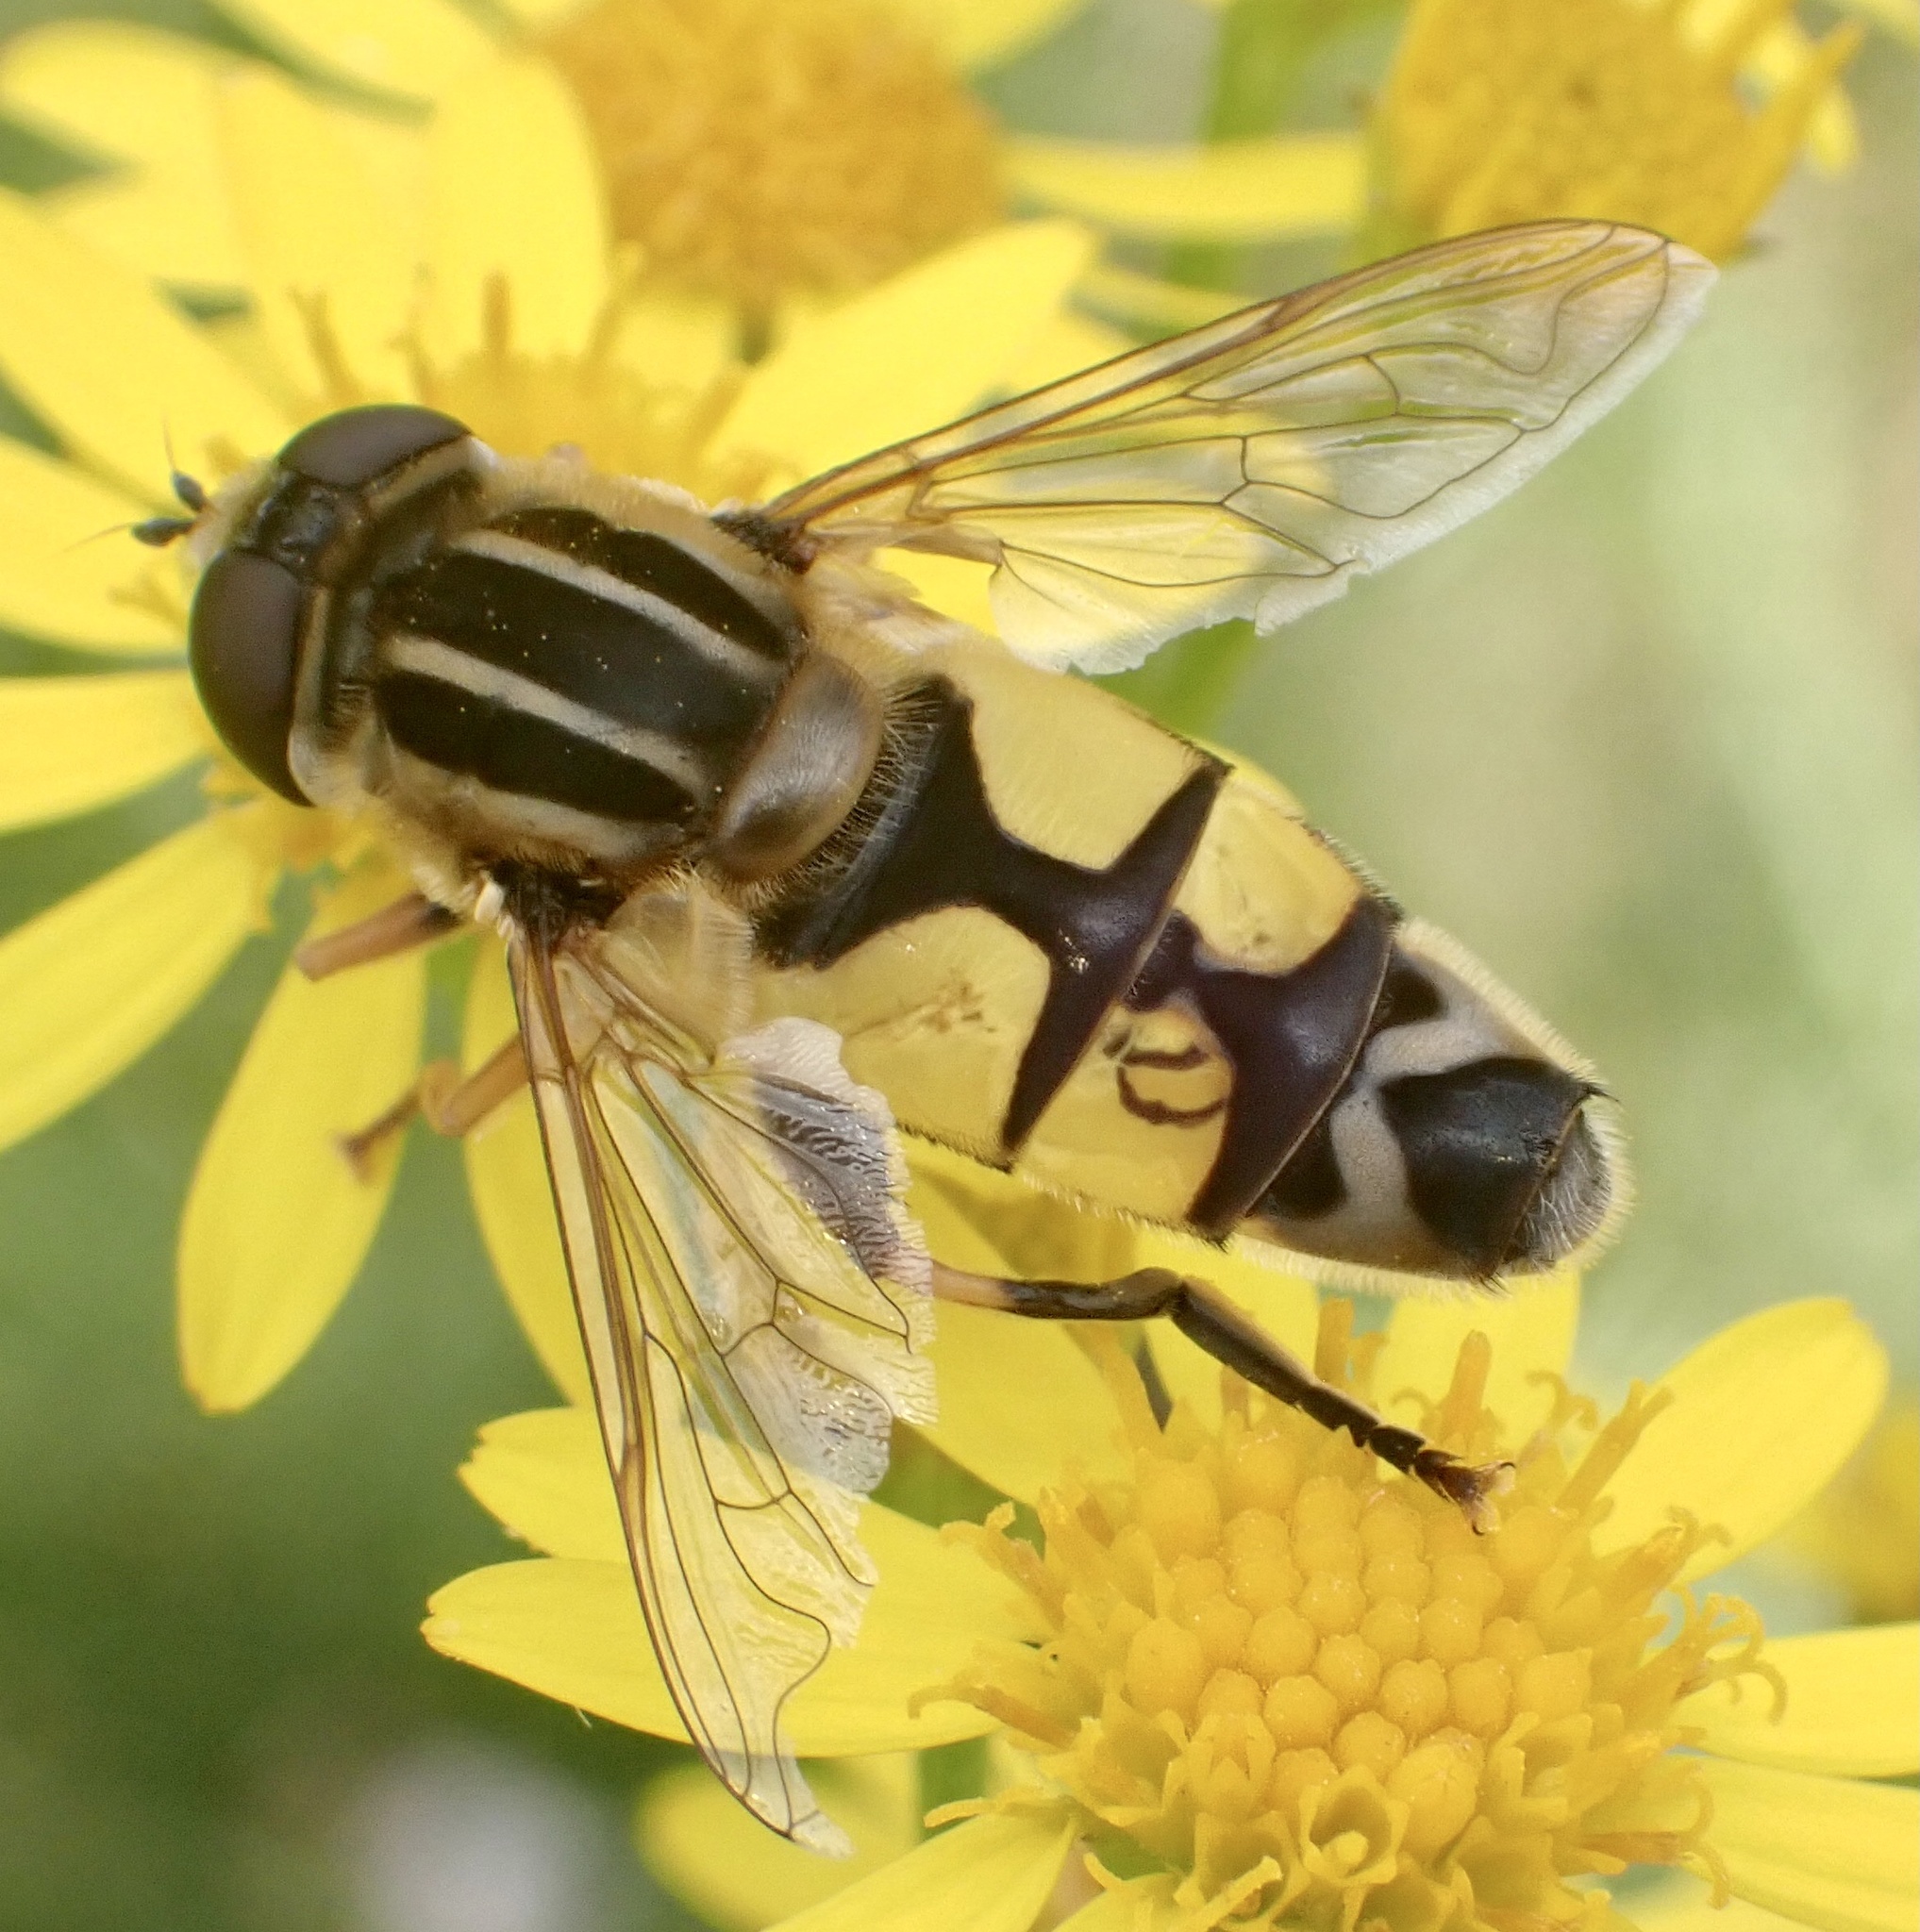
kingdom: Animalia
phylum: Arthropoda
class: Insecta
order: Diptera
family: Syrphidae
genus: Helophilus
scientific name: Helophilus trivittatus
